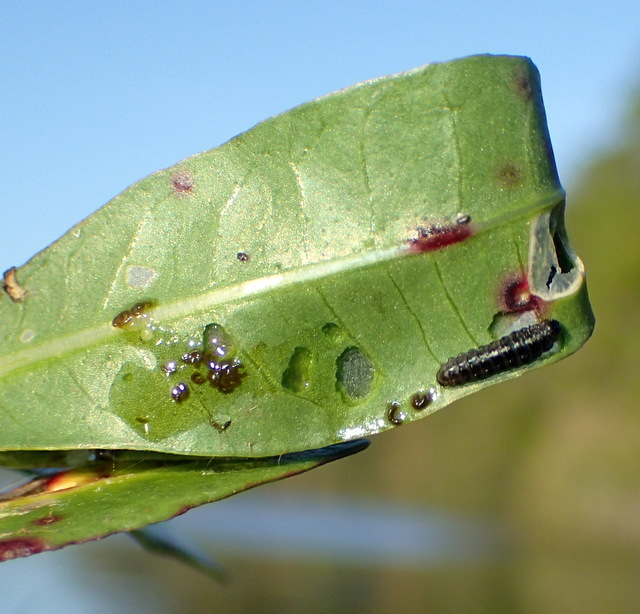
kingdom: Animalia
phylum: Arthropoda
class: Insecta
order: Coleoptera
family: Chrysomelidae
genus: Agasicles
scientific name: Agasicles hygrophila
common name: Alligatorweed flea beetle
